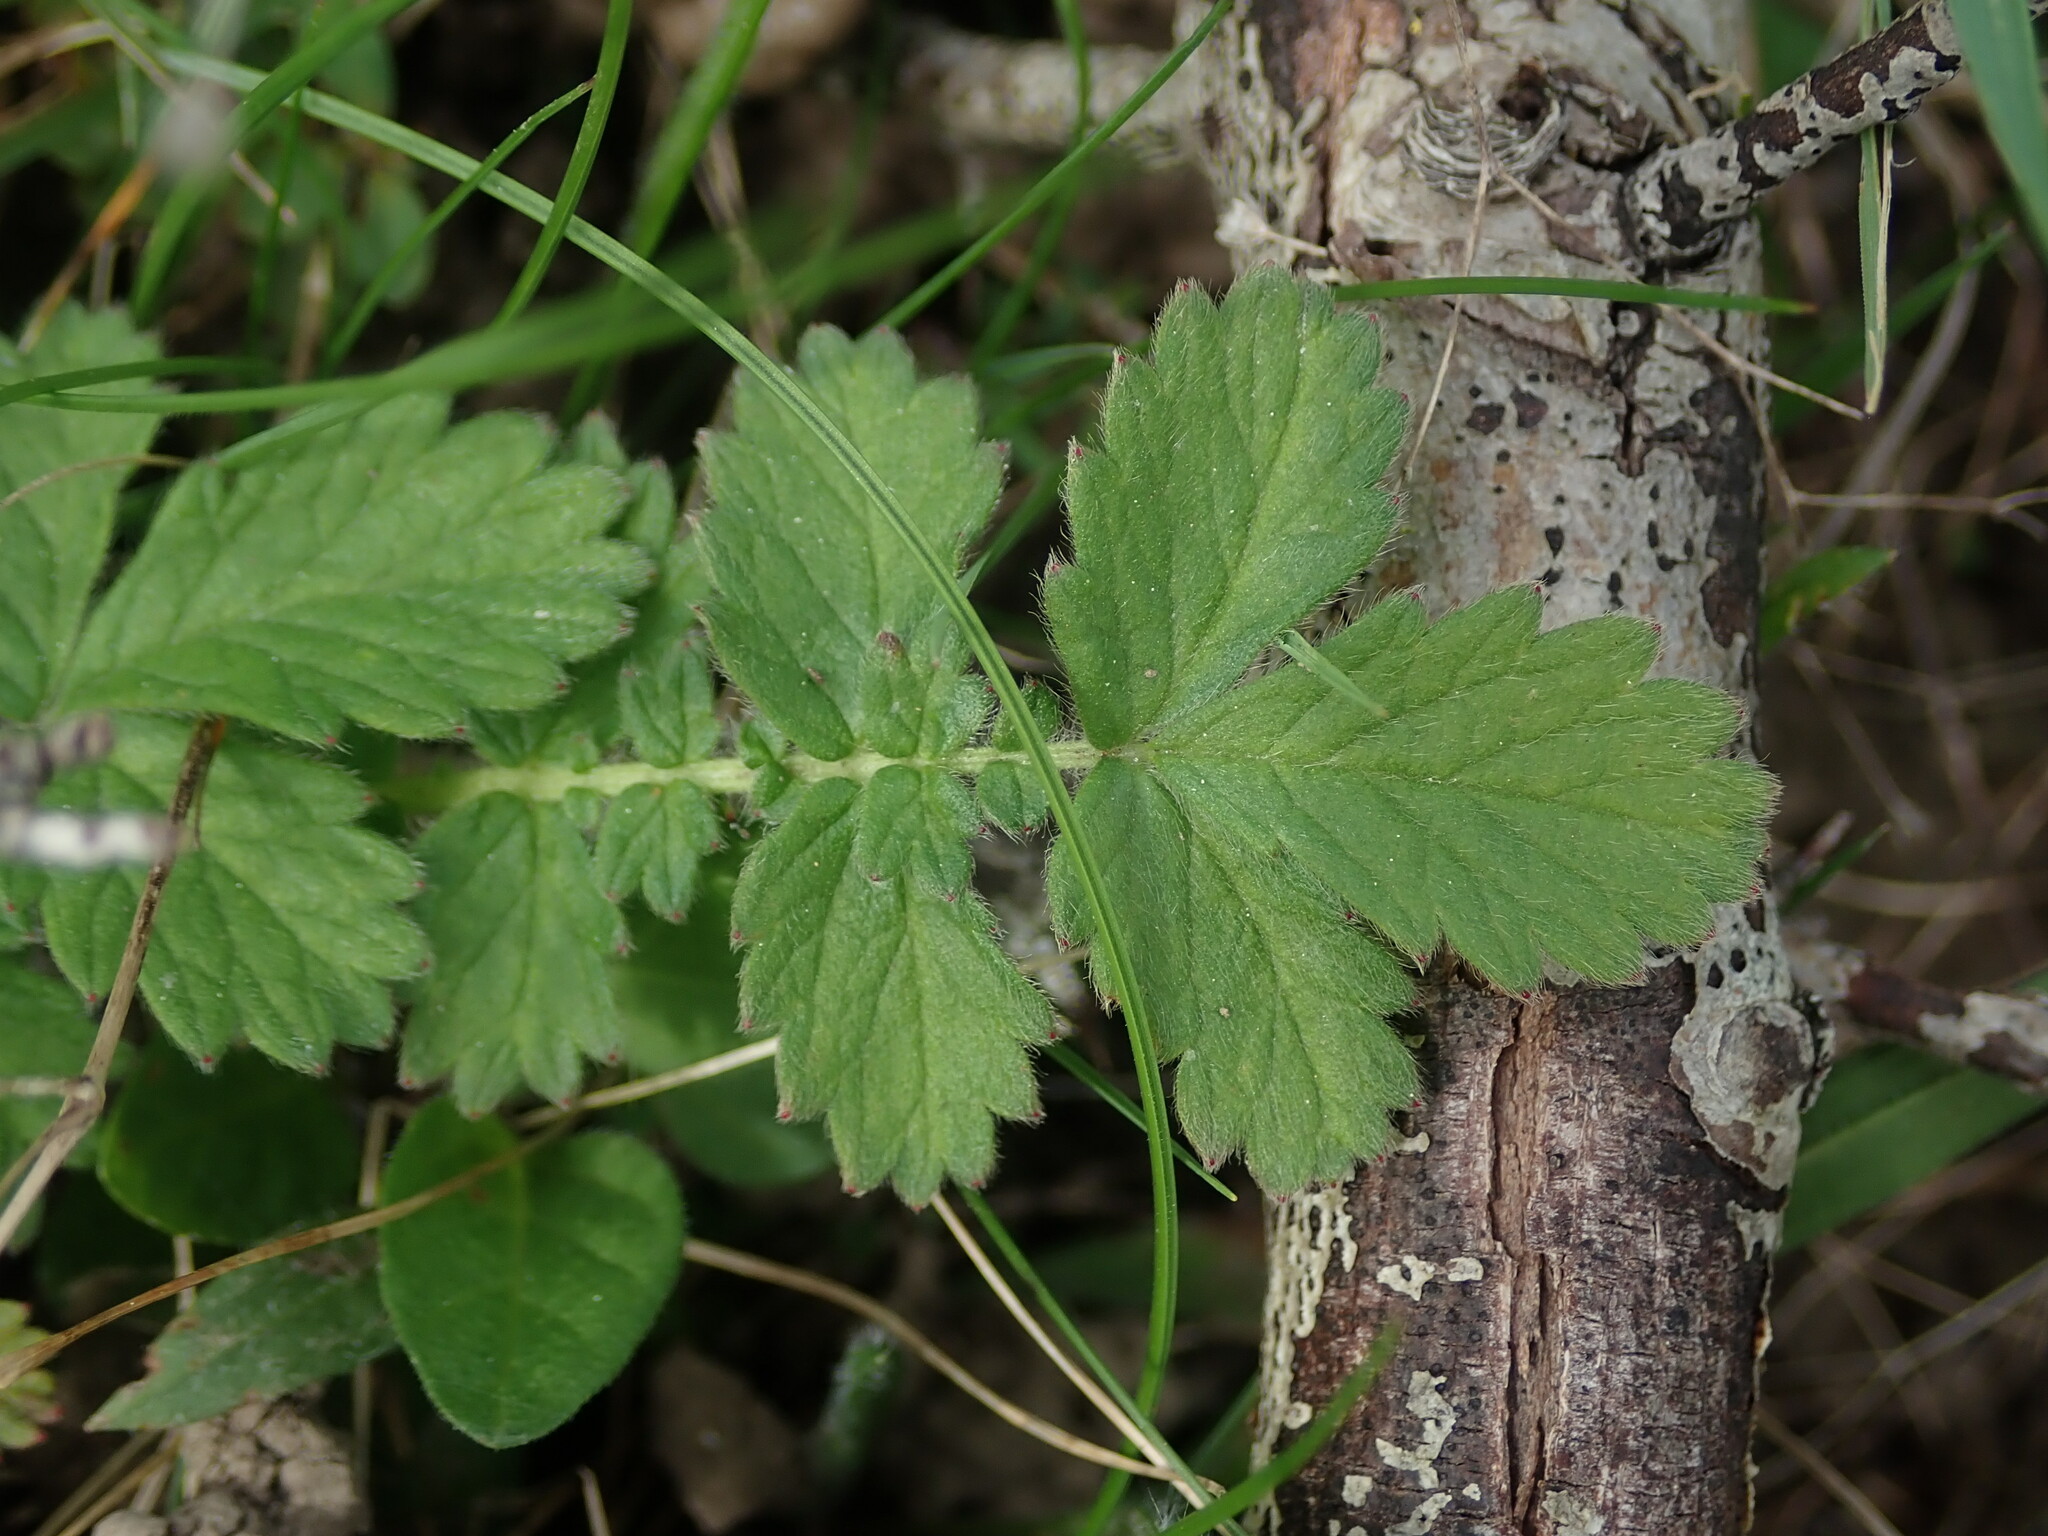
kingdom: Plantae
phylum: Tracheophyta
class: Magnoliopsida
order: Rosales
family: Rosaceae
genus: Agrimonia
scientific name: Agrimonia eupatoria
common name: Agrimony
